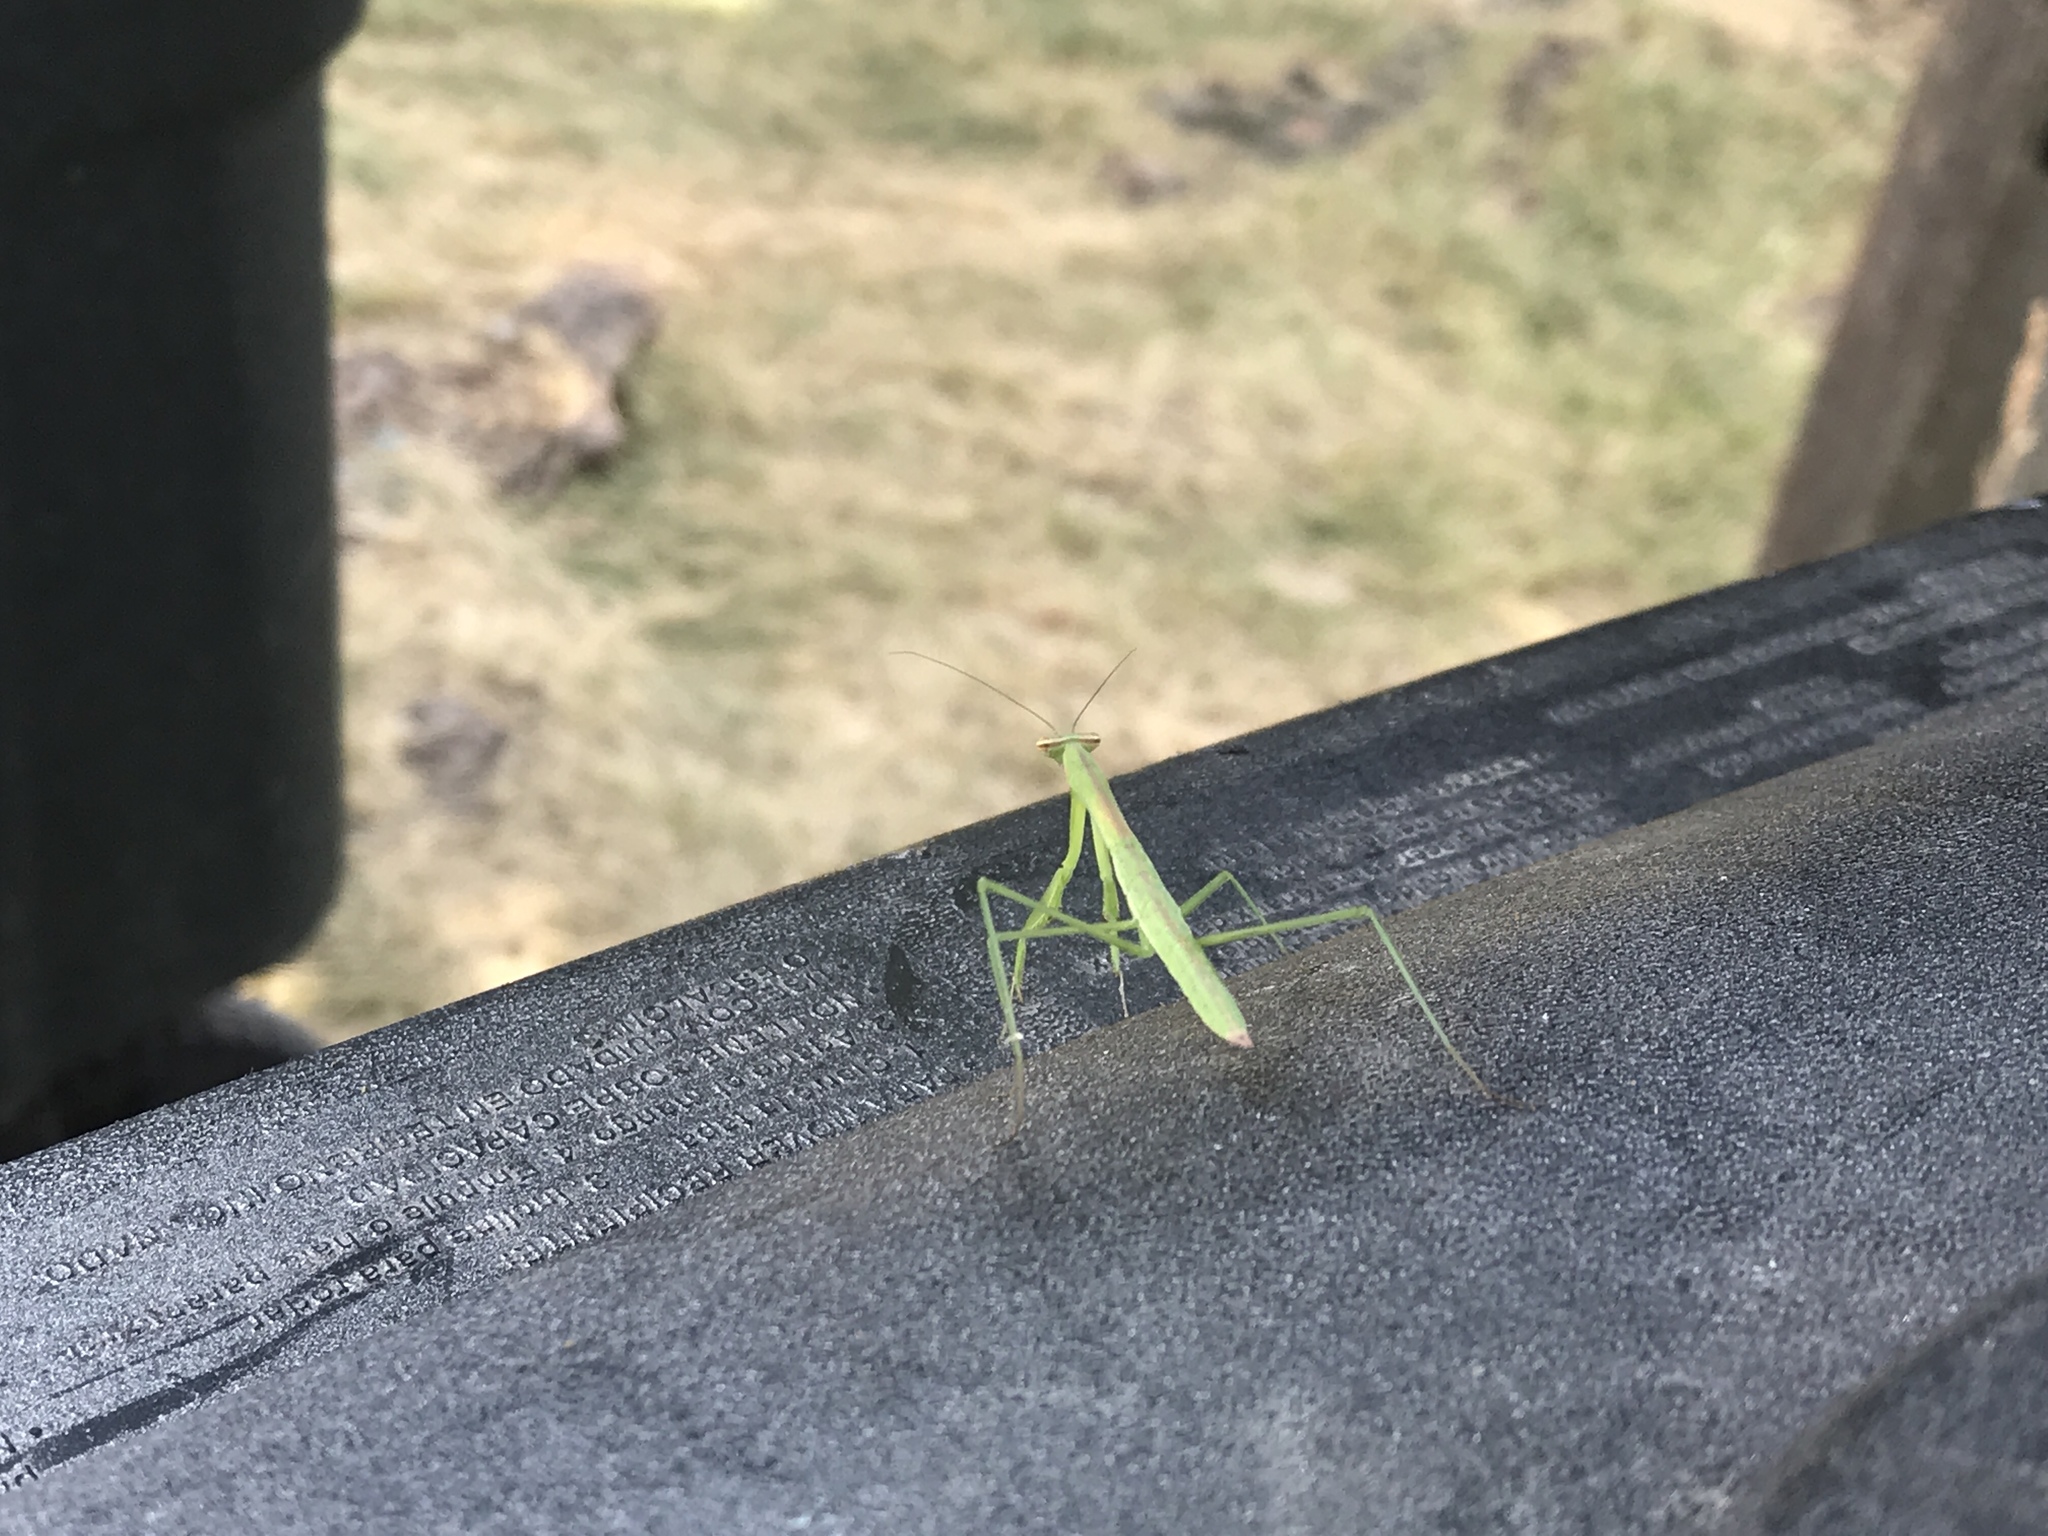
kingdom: Animalia
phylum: Arthropoda
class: Insecta
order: Mantodea
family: Mantidae
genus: Tenodera
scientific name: Tenodera sinensis
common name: Chinese mantis
